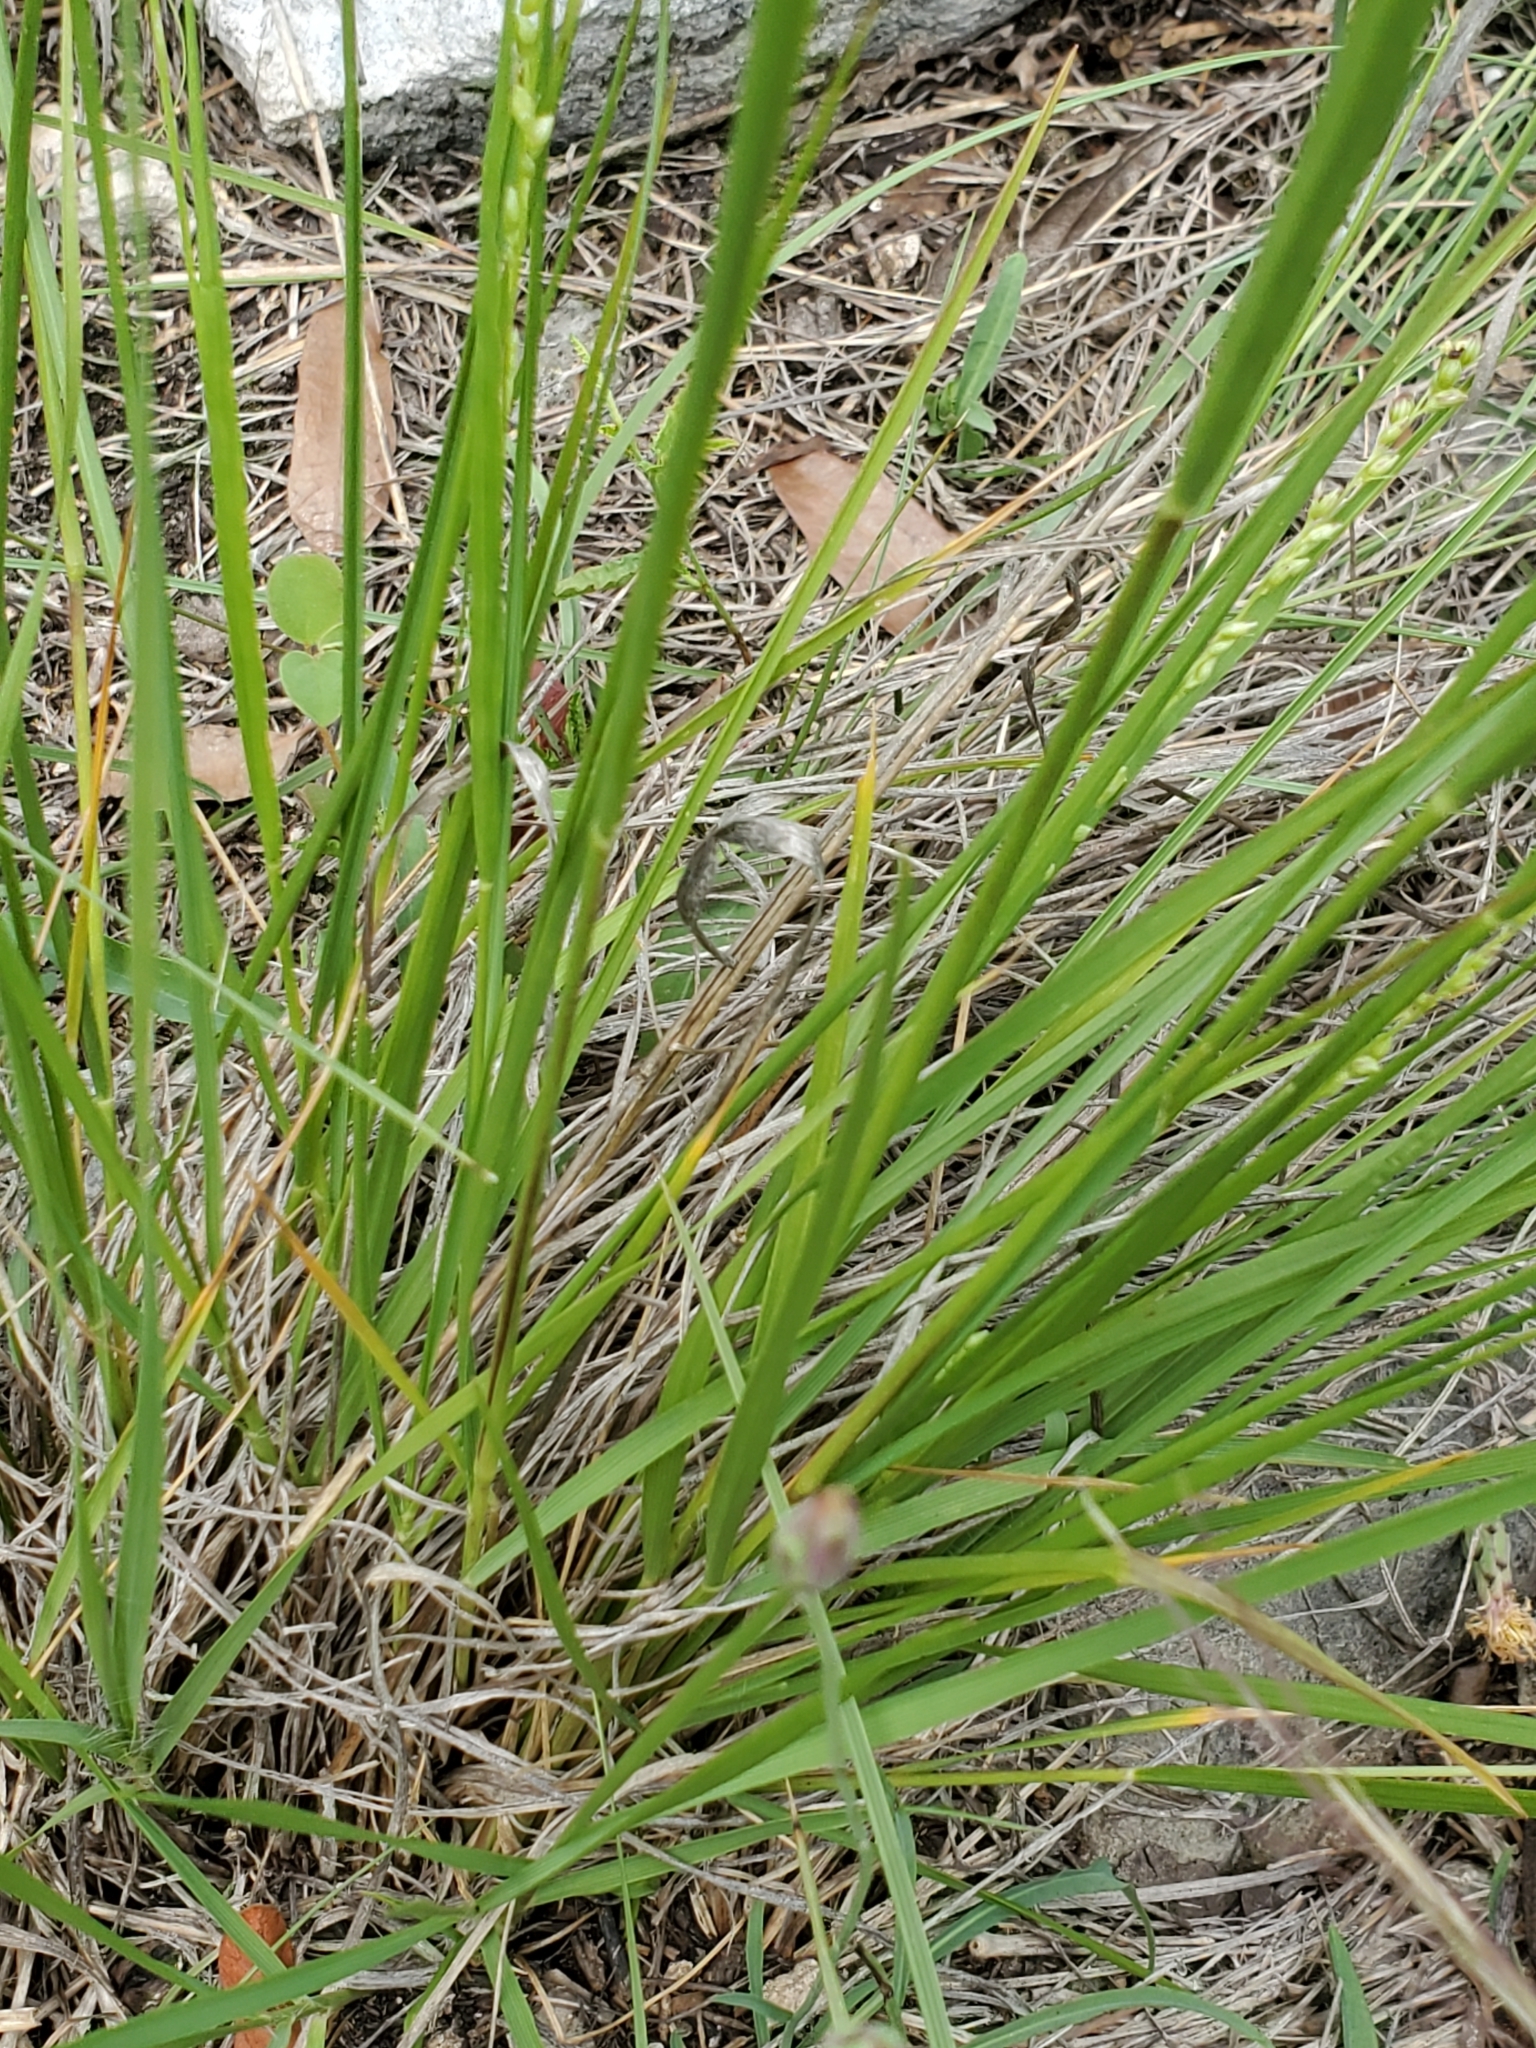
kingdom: Plantae
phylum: Tracheophyta
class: Liliopsida
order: Poales
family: Poaceae
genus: Setaria
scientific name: Setaria reverchonii
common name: Reverchon's bristle grass
